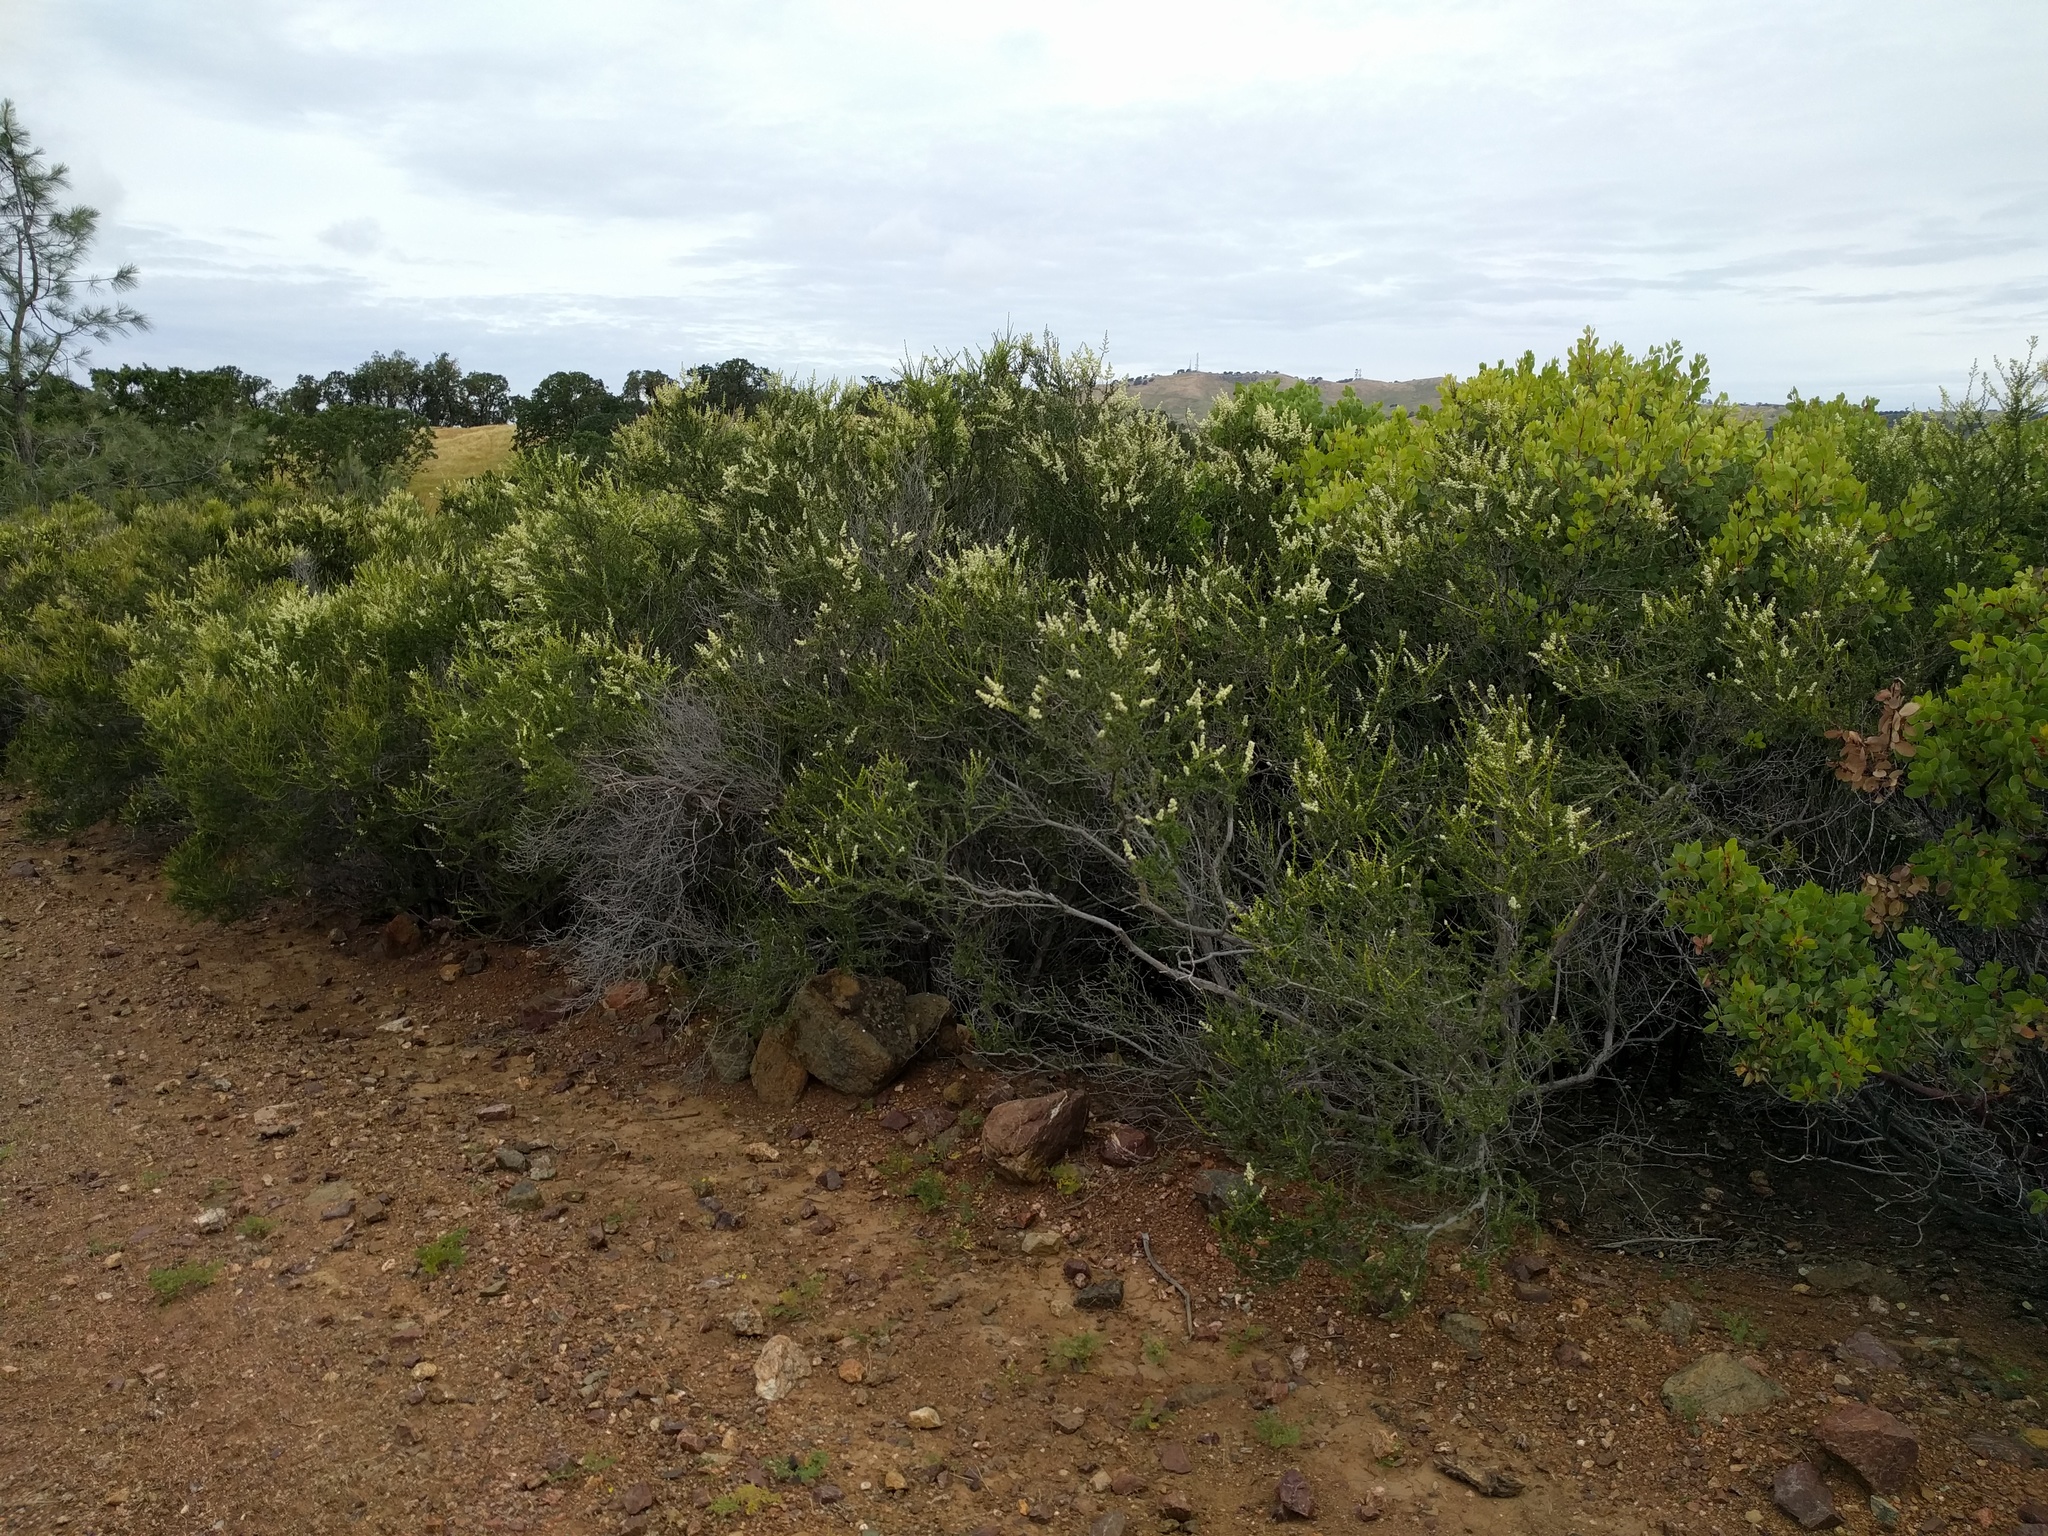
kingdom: Plantae
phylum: Tracheophyta
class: Magnoliopsida
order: Rosales
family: Rosaceae
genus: Adenostoma
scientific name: Adenostoma fasciculatum
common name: Chamise
